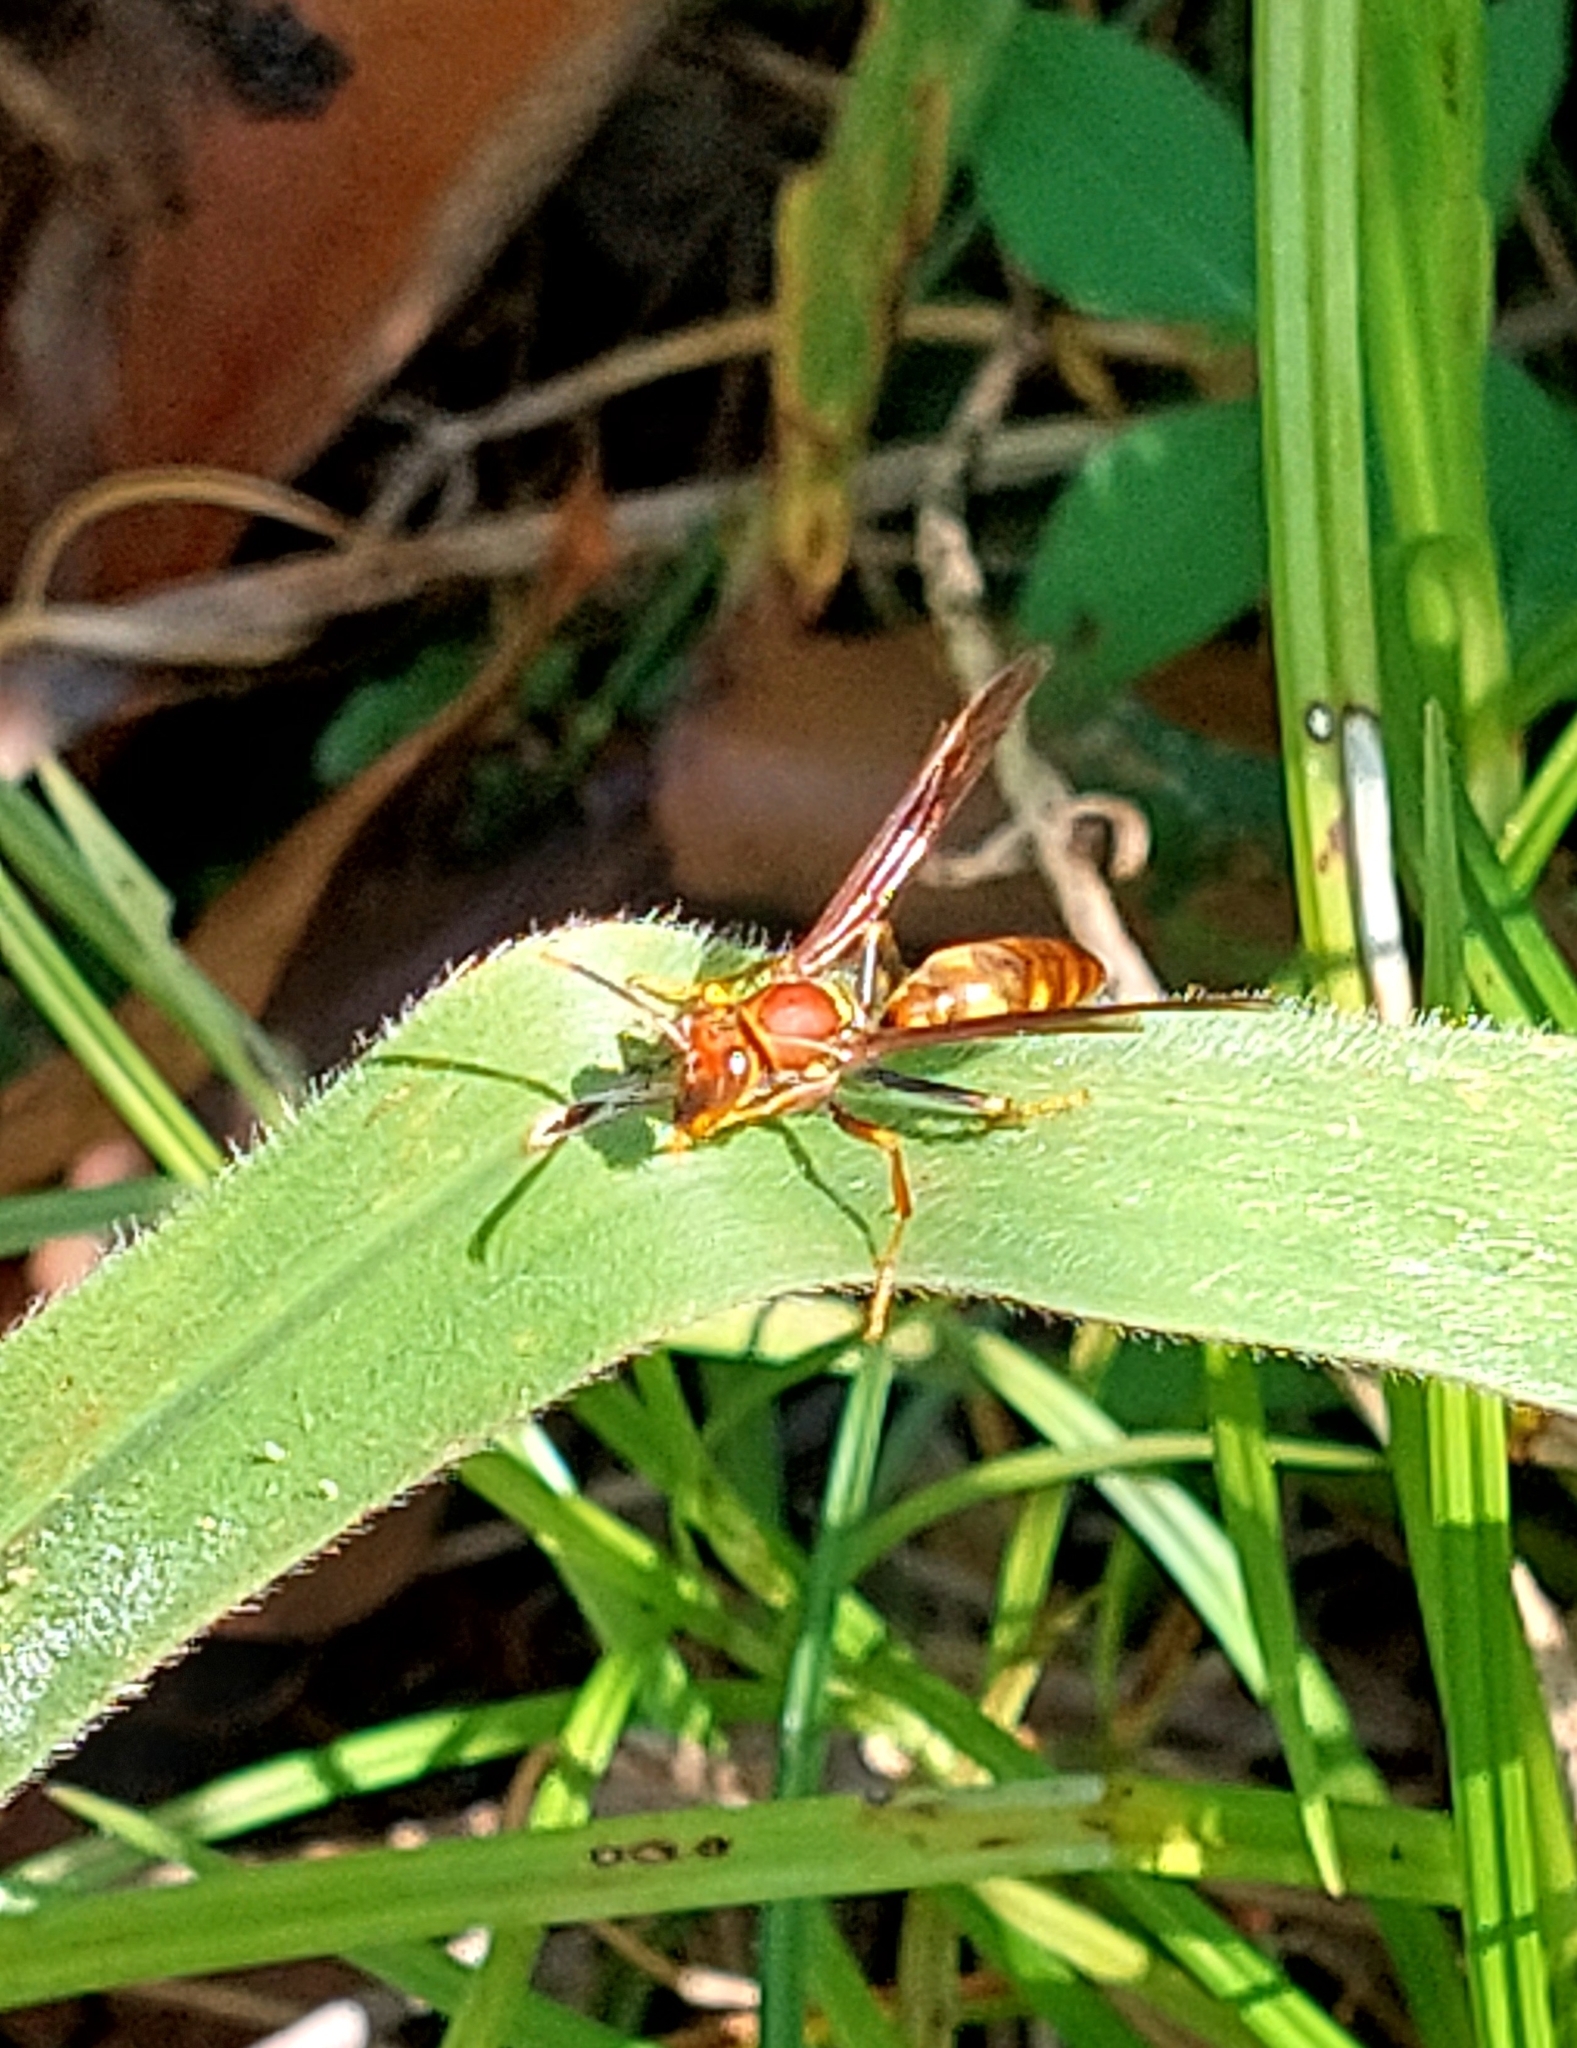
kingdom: Animalia
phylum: Arthropoda
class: Insecta
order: Hymenoptera
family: Eumenidae
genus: Polistes
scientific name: Polistes versicolor
